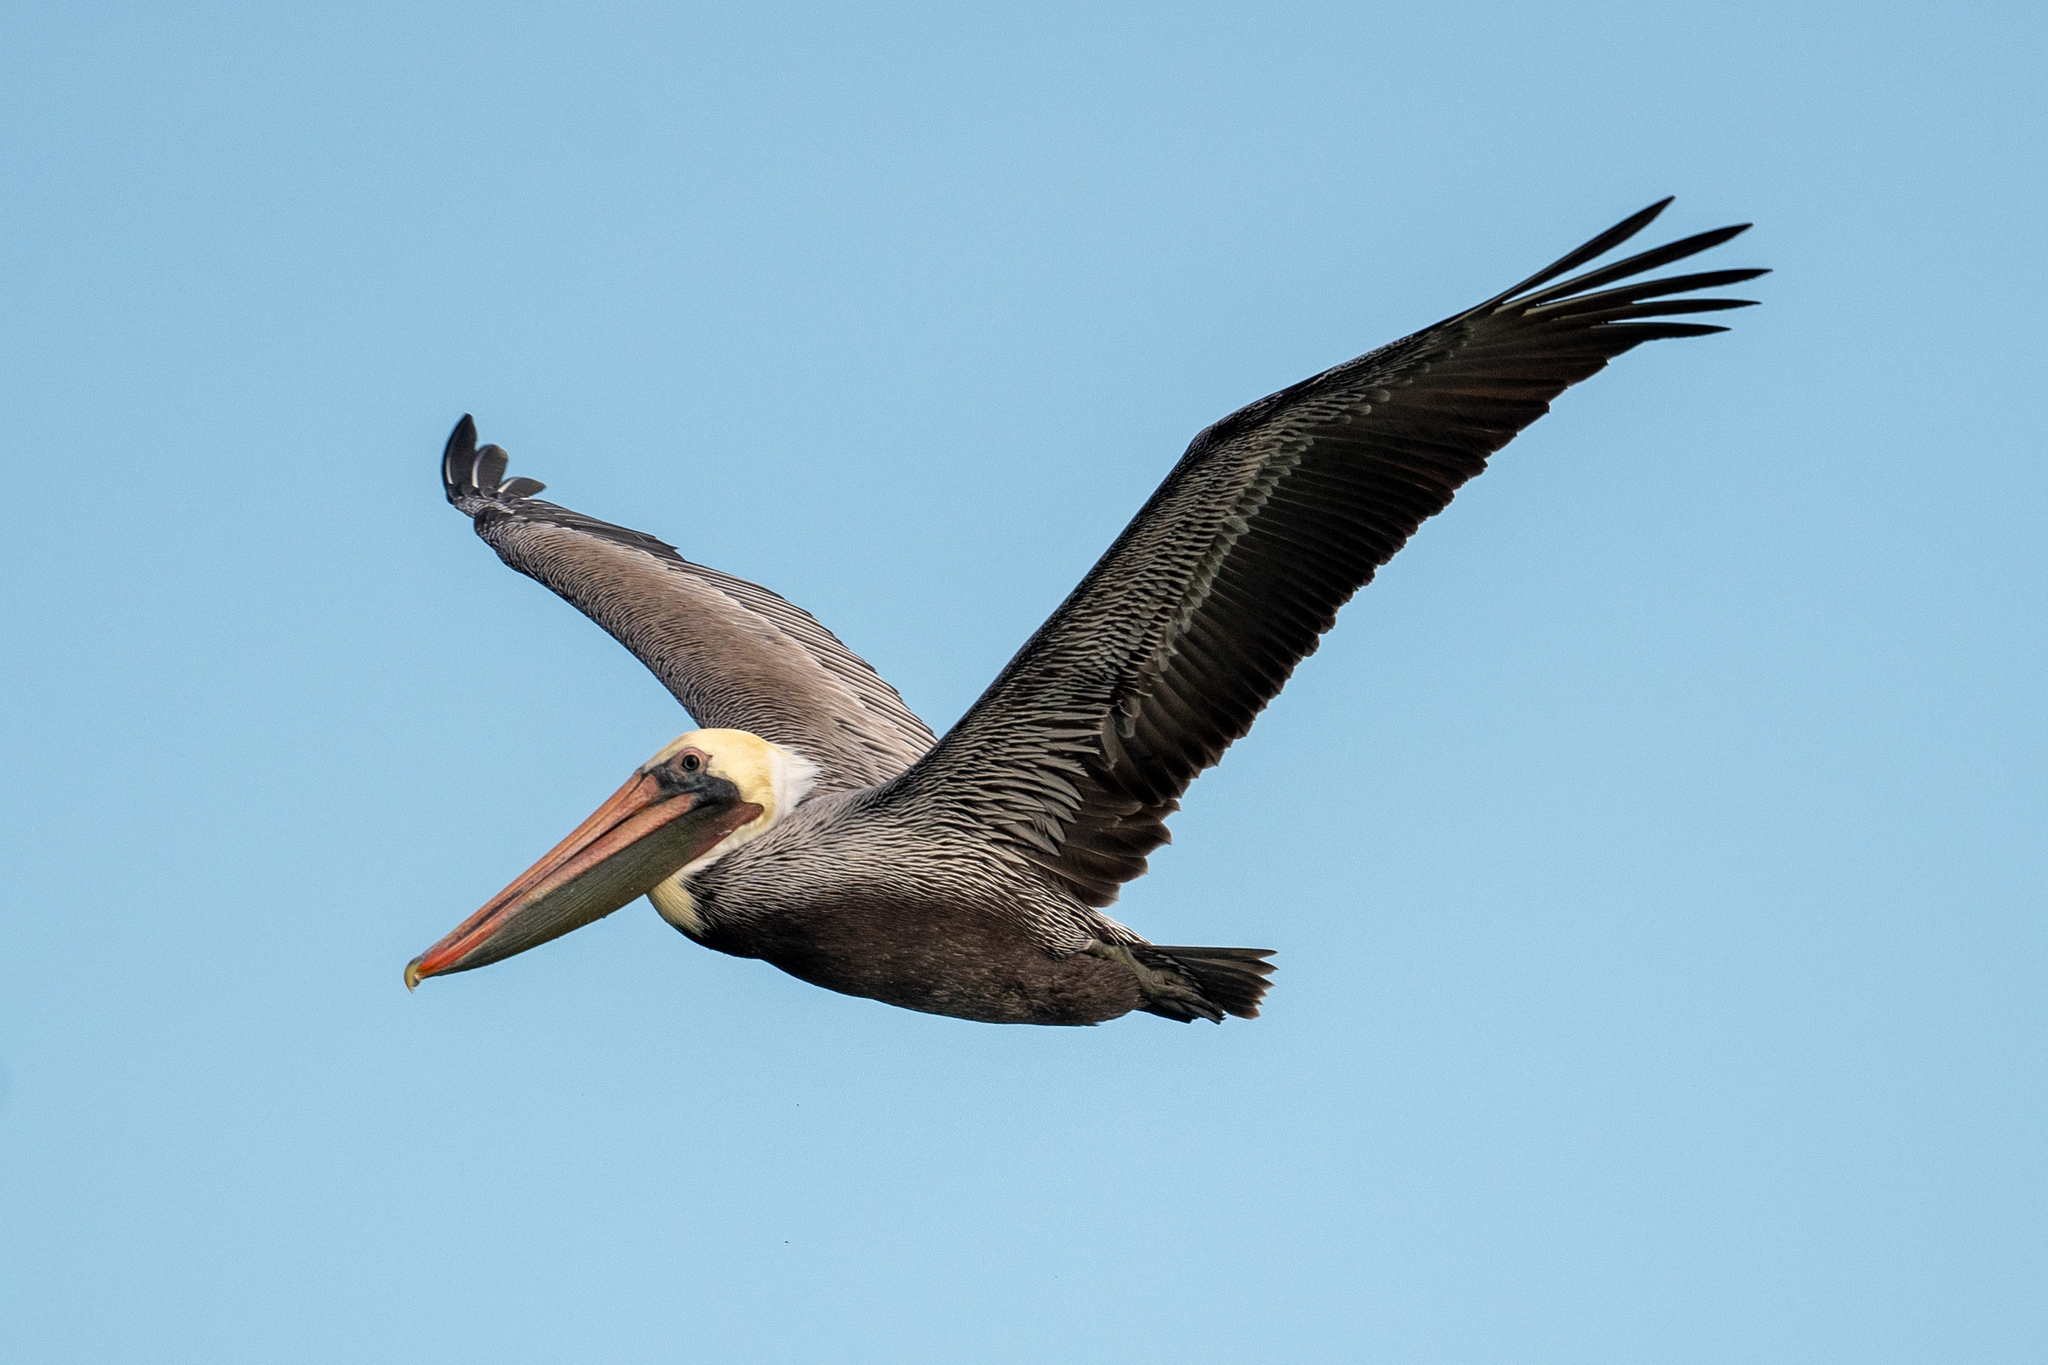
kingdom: Animalia
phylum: Chordata
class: Aves
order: Pelecaniformes
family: Pelecanidae
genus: Pelecanus
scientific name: Pelecanus occidentalis
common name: Brown pelican
